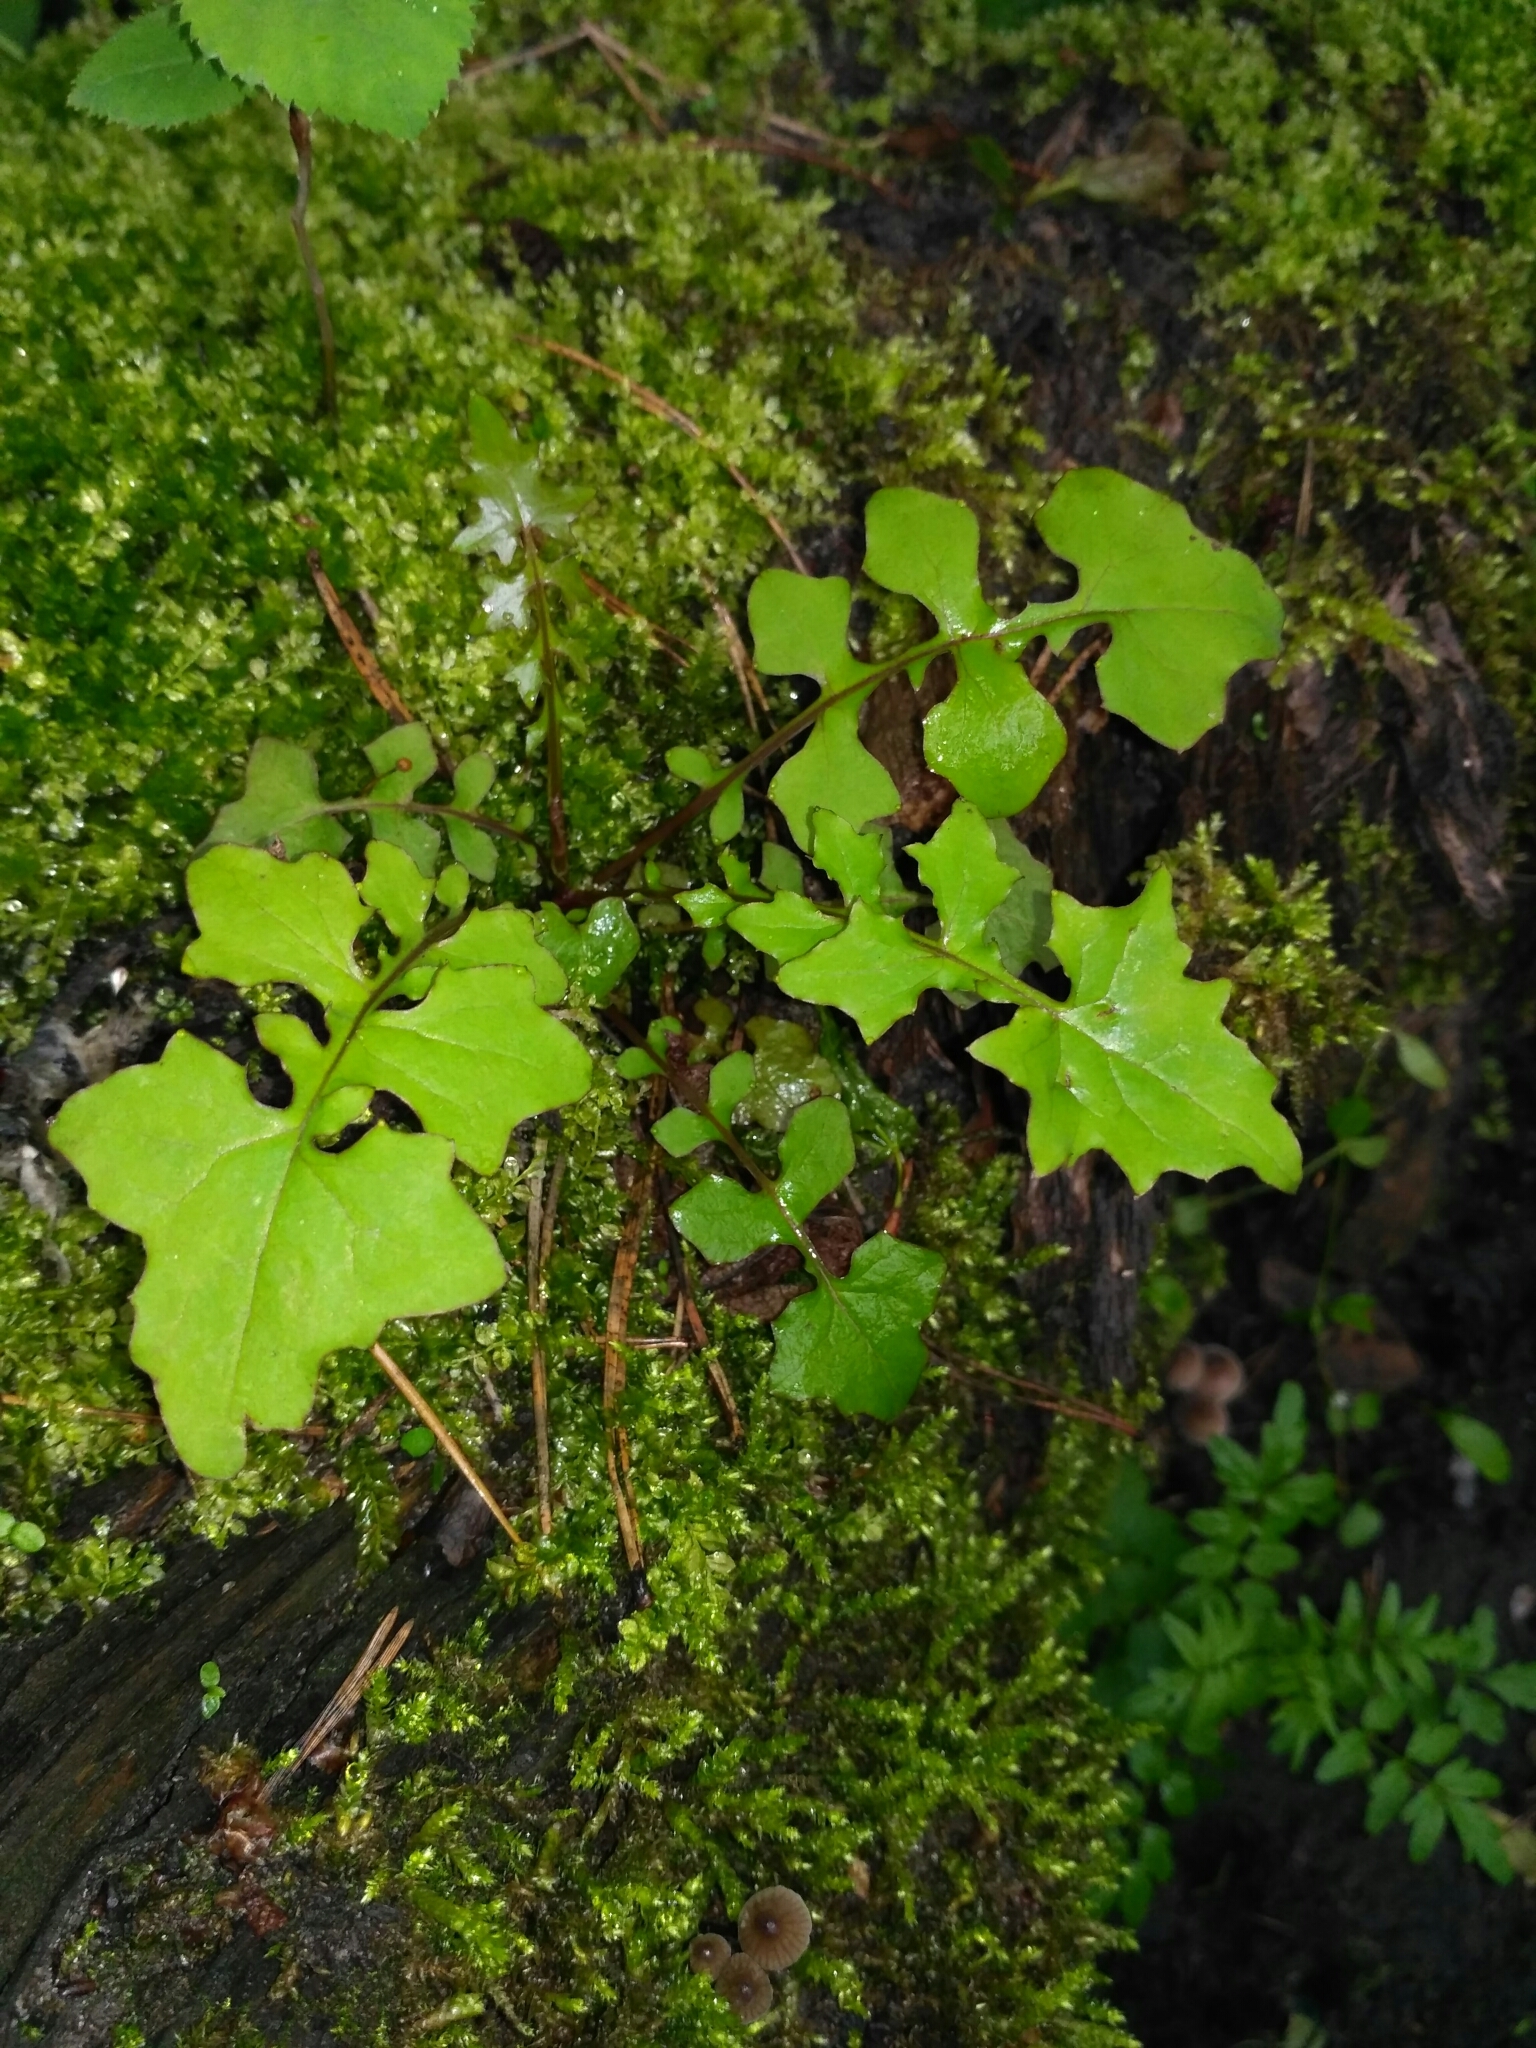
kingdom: Plantae
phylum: Tracheophyta
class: Magnoliopsida
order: Asterales
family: Asteraceae
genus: Mycelis
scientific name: Mycelis muralis
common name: Wall lettuce
